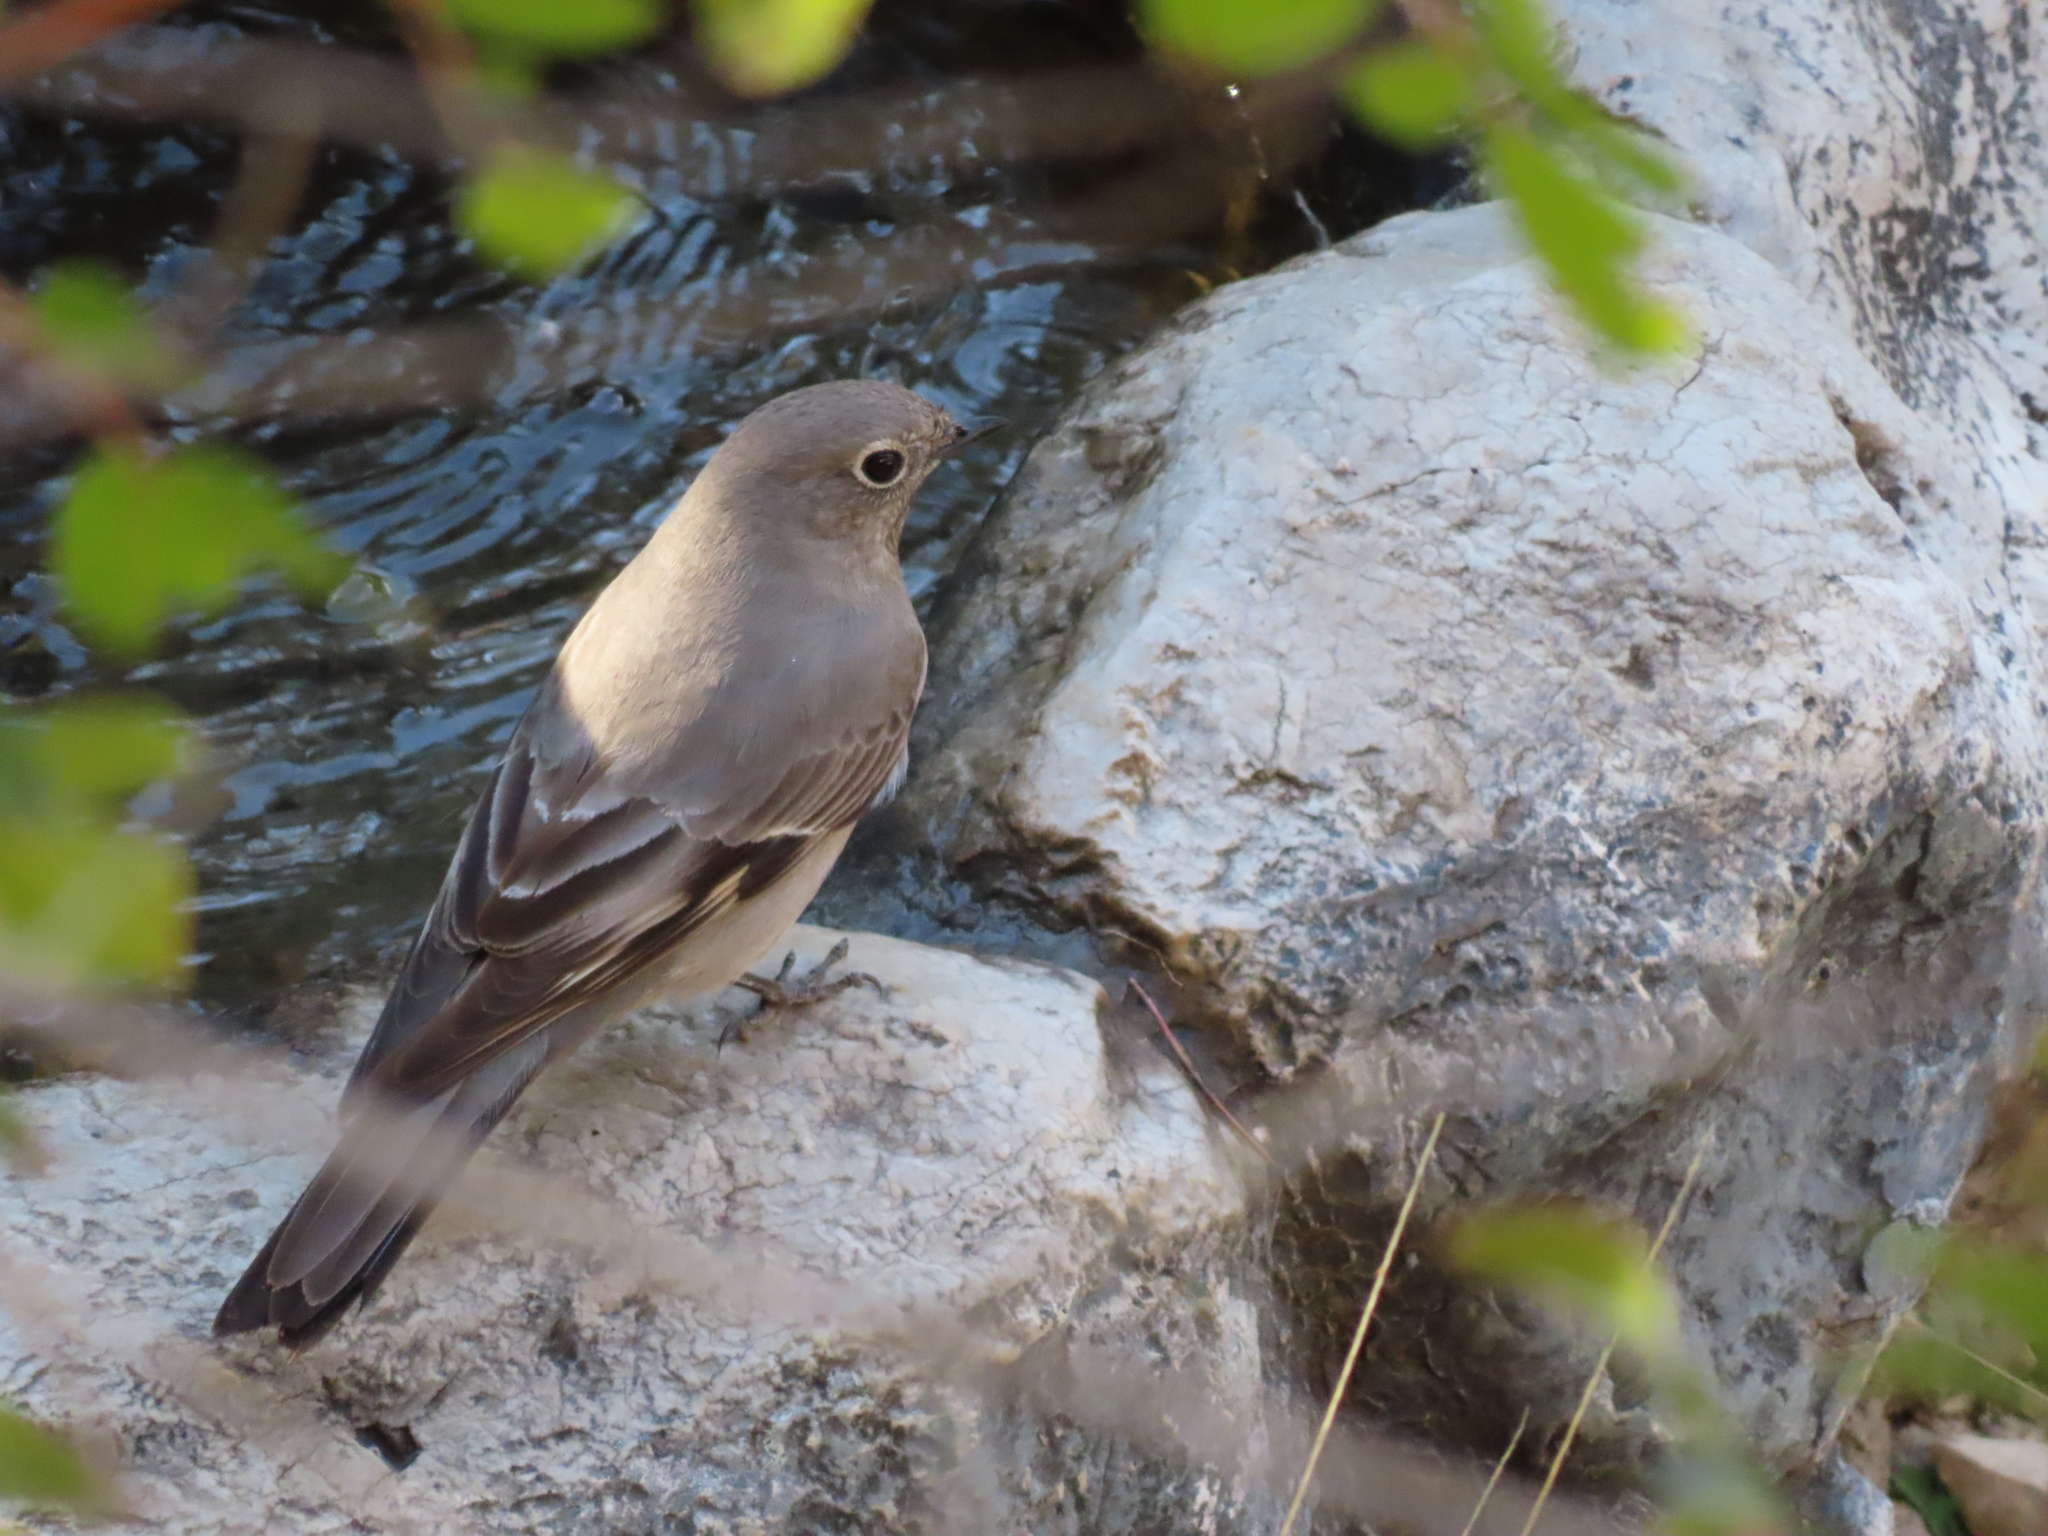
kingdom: Animalia
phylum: Chordata
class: Aves
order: Passeriformes
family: Turdidae
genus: Myadestes
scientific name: Myadestes townsendi
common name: Townsend's solitaire
